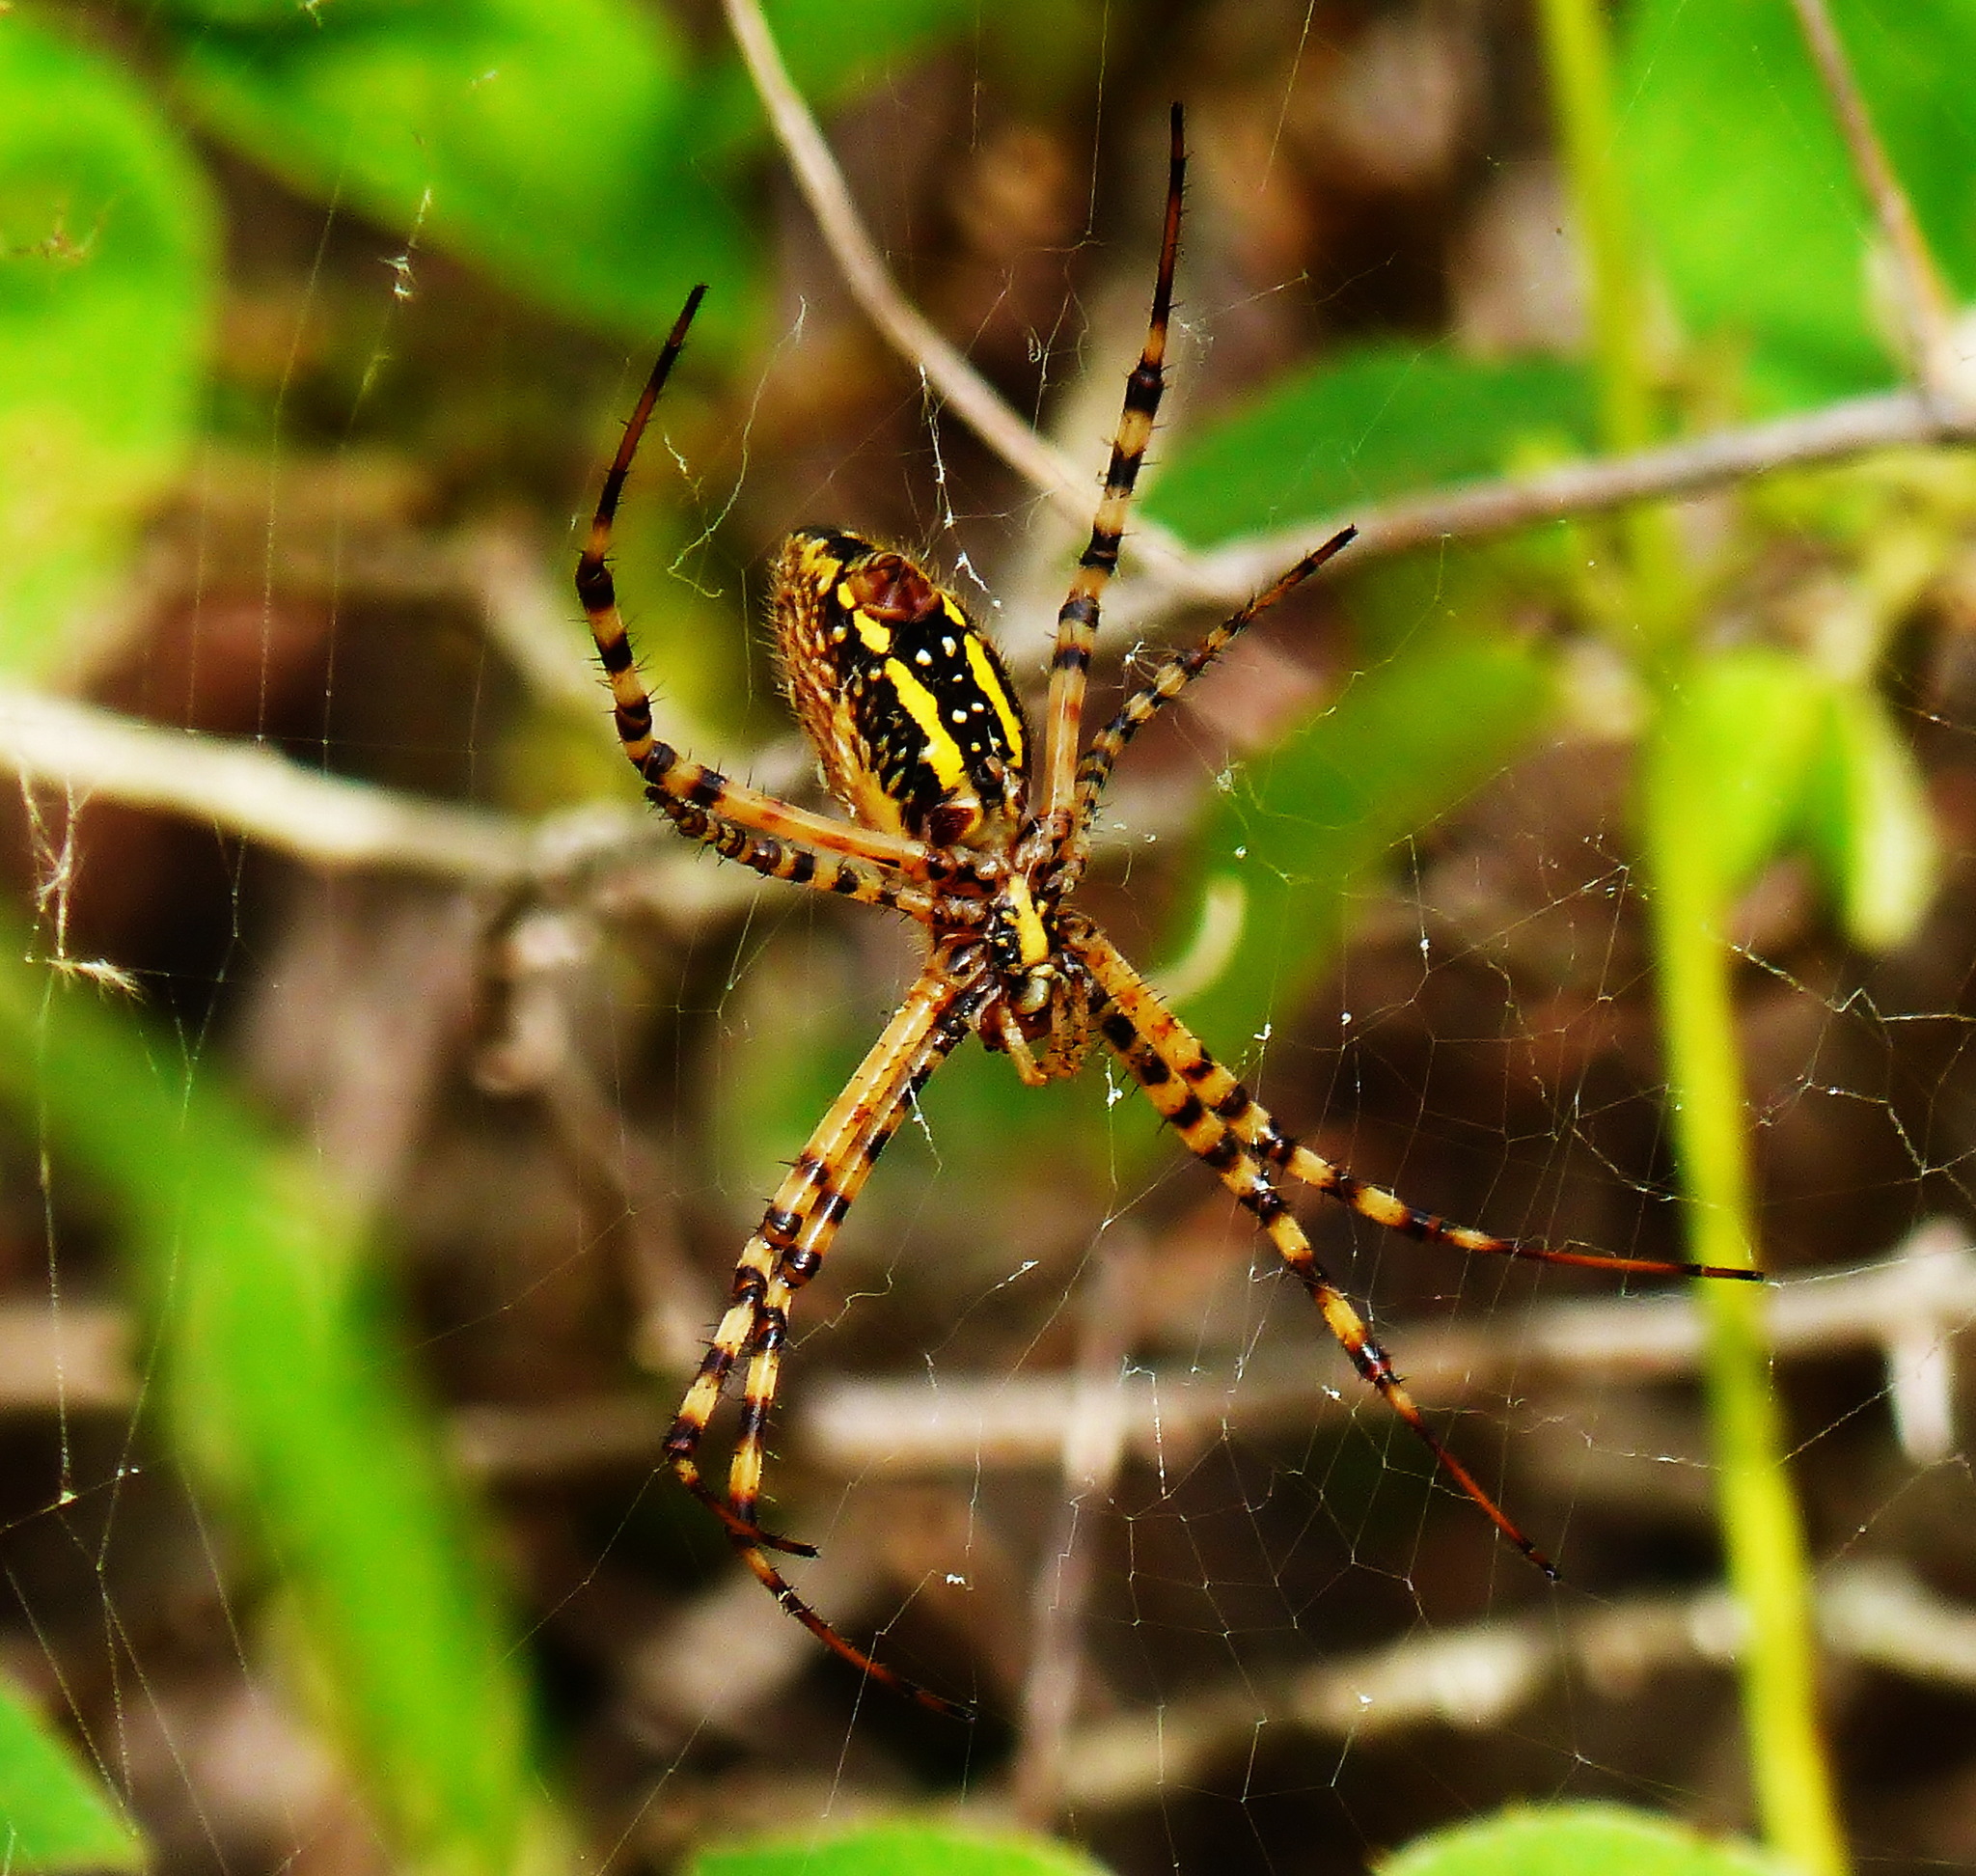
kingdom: Animalia
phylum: Arthropoda
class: Arachnida
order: Araneae
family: Araneidae
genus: Argiope
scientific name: Argiope trifasciata
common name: Banded garden spider
